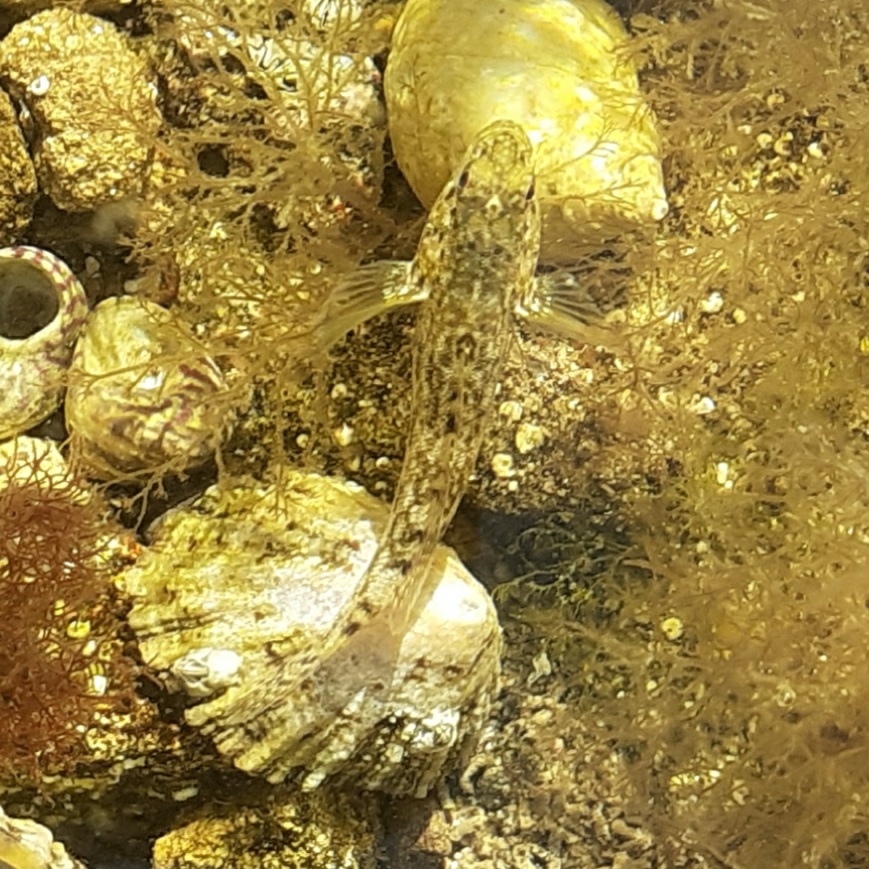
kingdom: Animalia
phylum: Chordata
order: Perciformes
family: Gobiidae
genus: Gobius
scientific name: Gobius cobitis
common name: Giant goby
